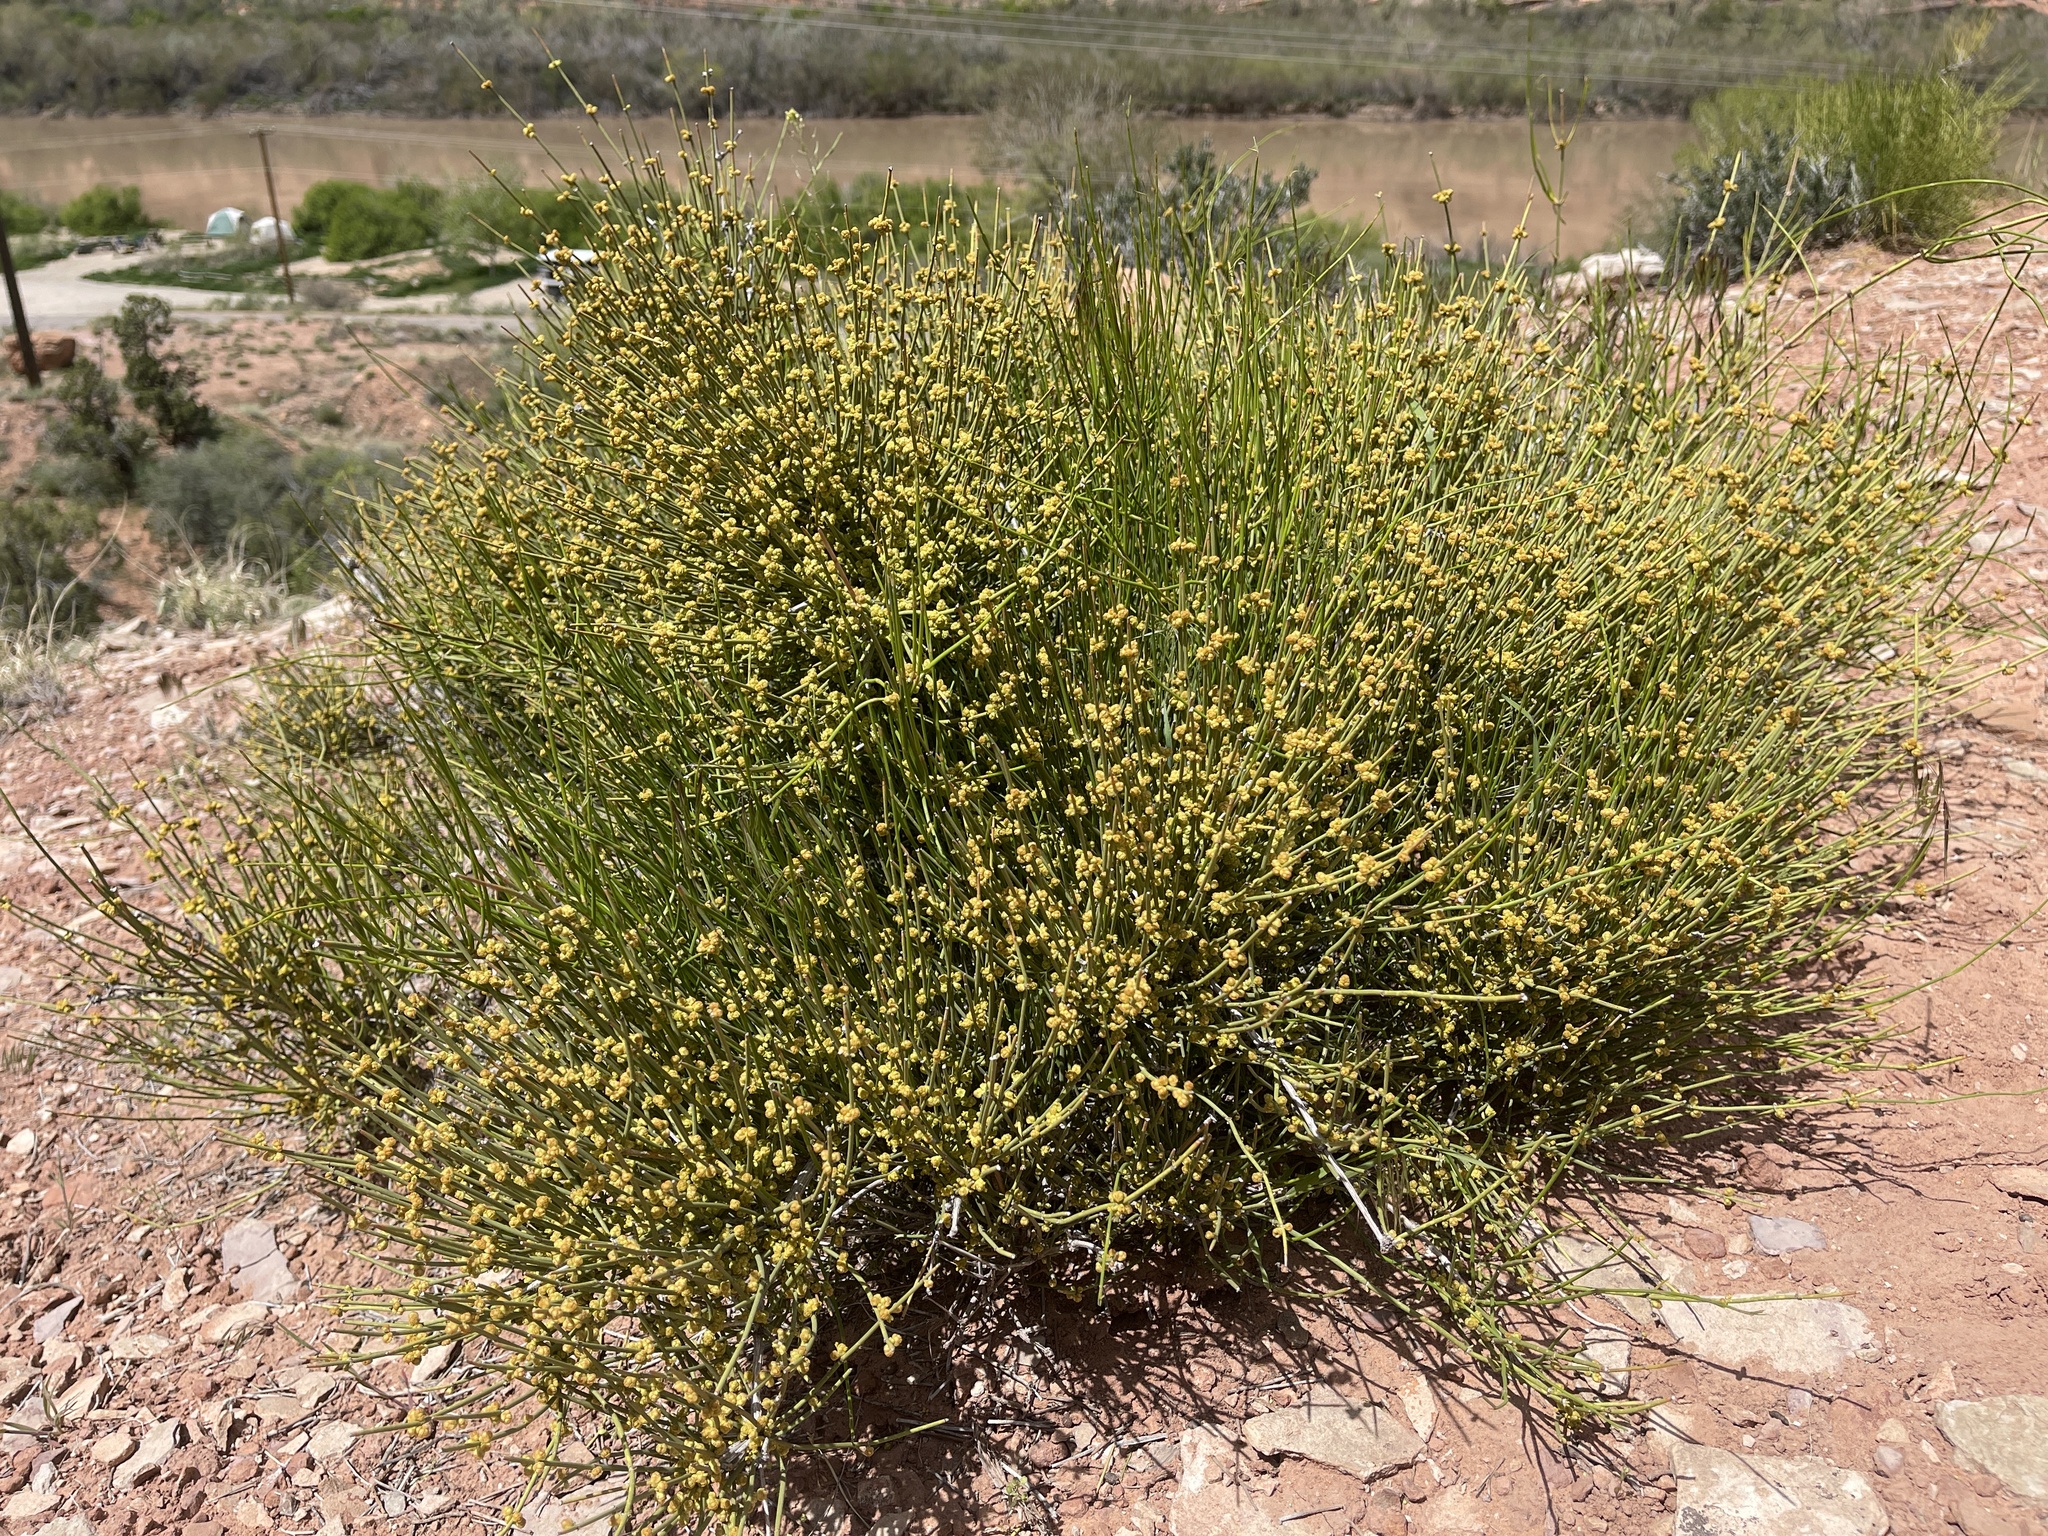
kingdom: Plantae
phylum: Tracheophyta
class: Gnetopsida
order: Ephedrales
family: Ephedraceae
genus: Ephedra
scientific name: Ephedra viridis
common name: Green ephedra
